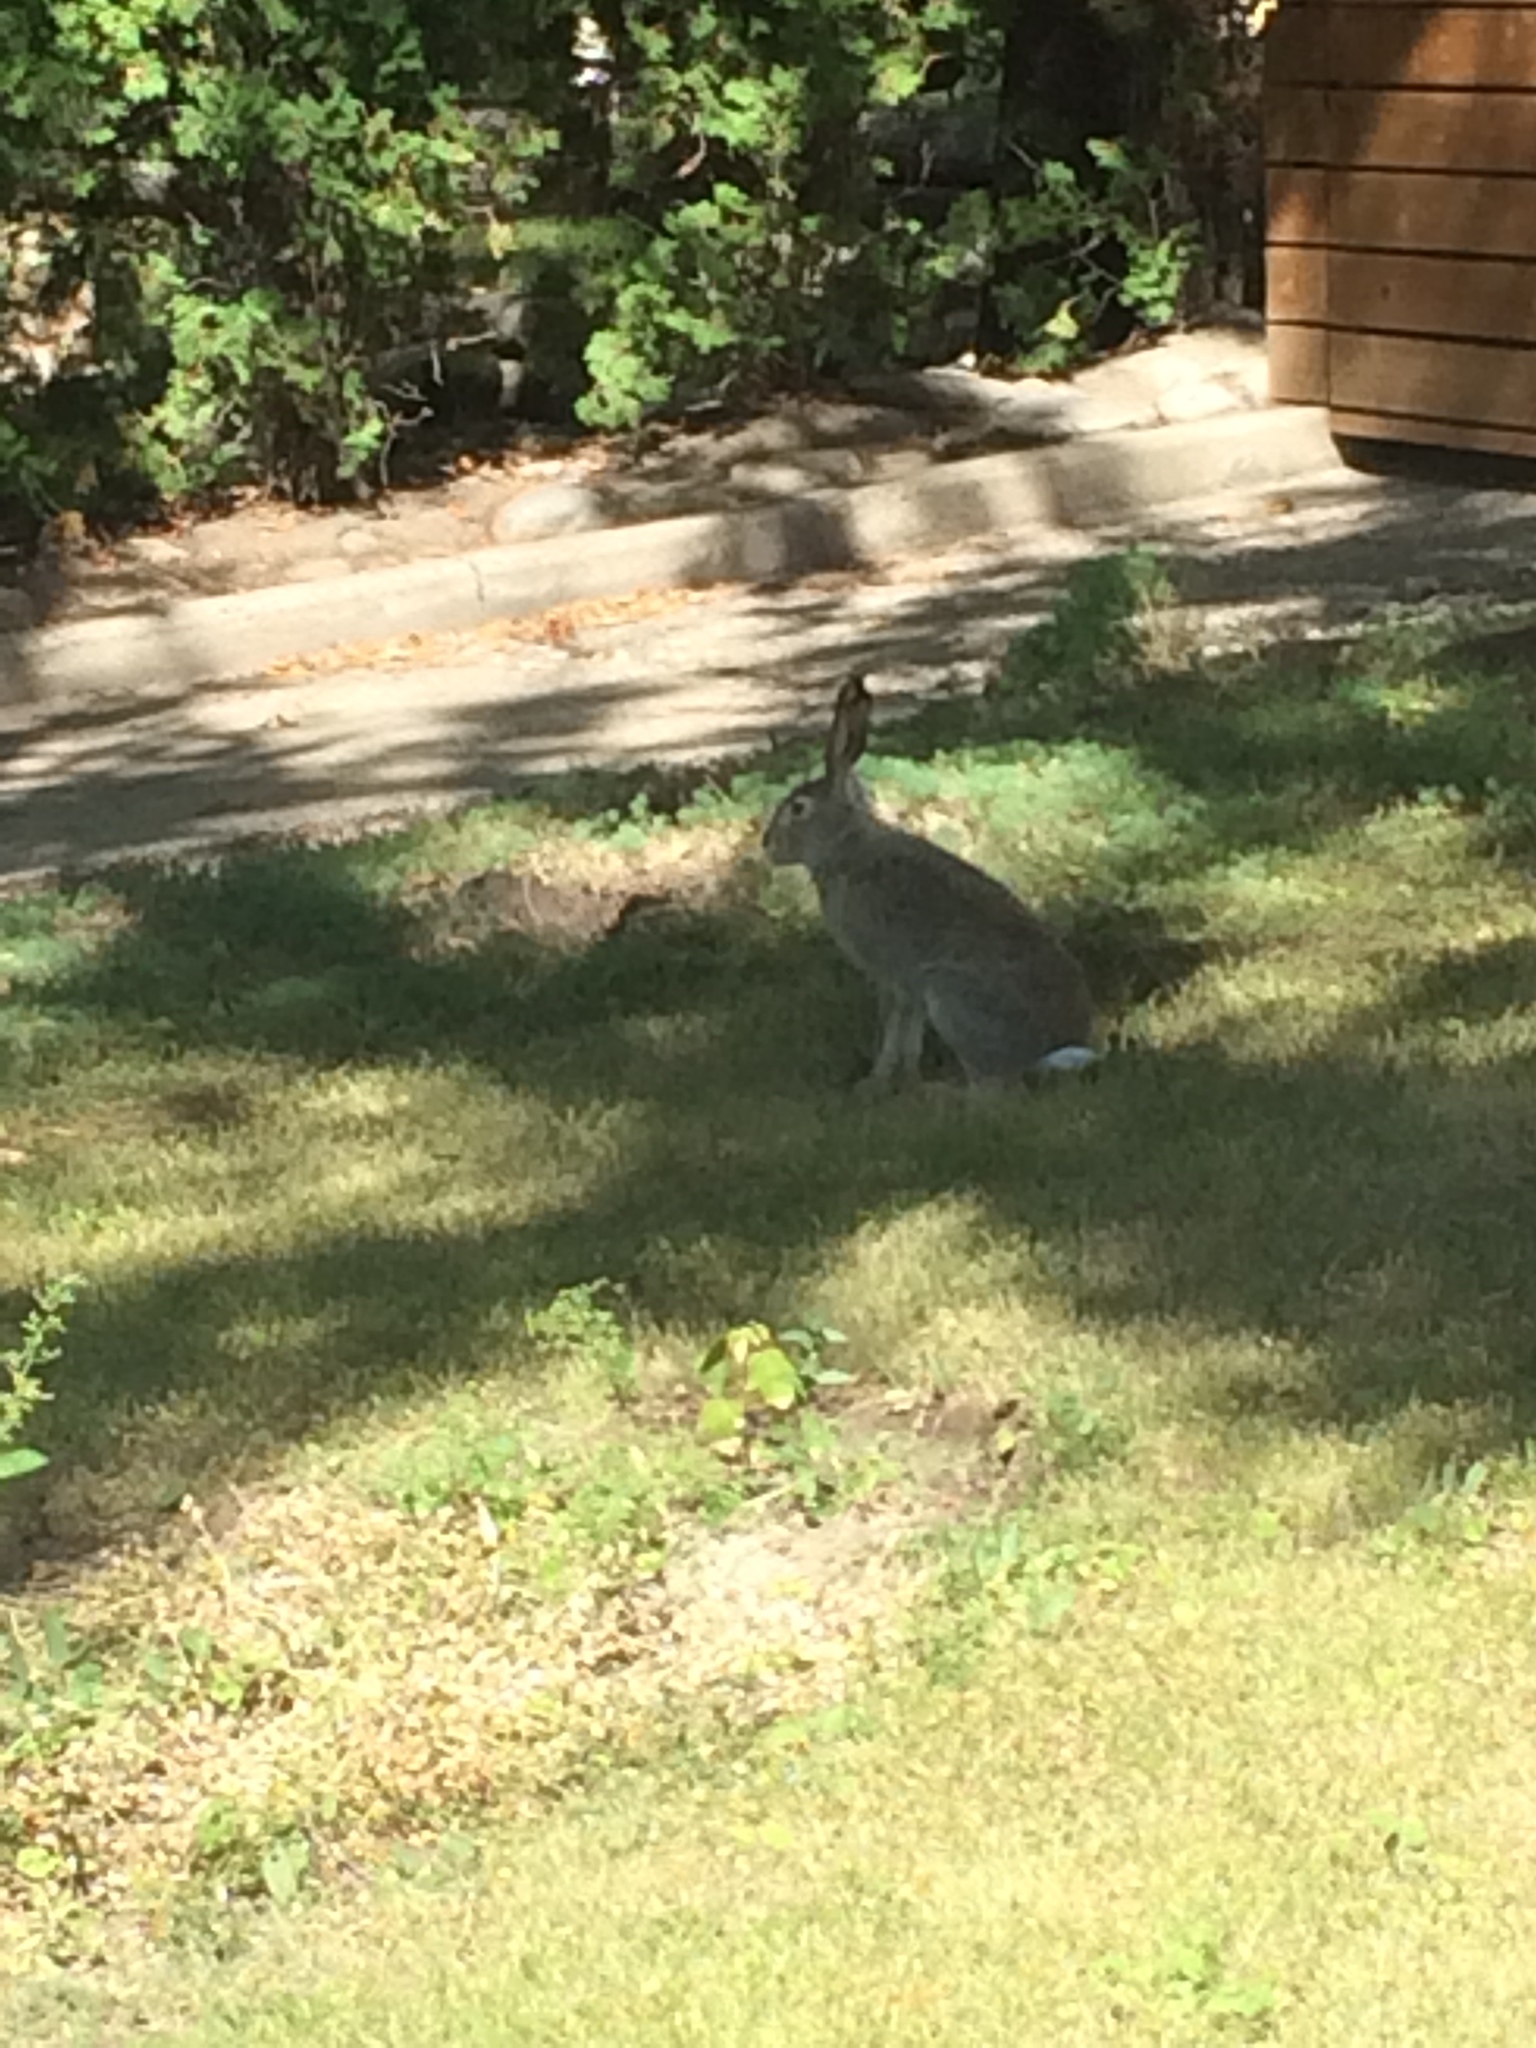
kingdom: Animalia
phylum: Chordata
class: Mammalia
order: Lagomorpha
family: Leporidae
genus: Lepus
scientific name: Lepus townsendii
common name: White-tailed jackrabbit
